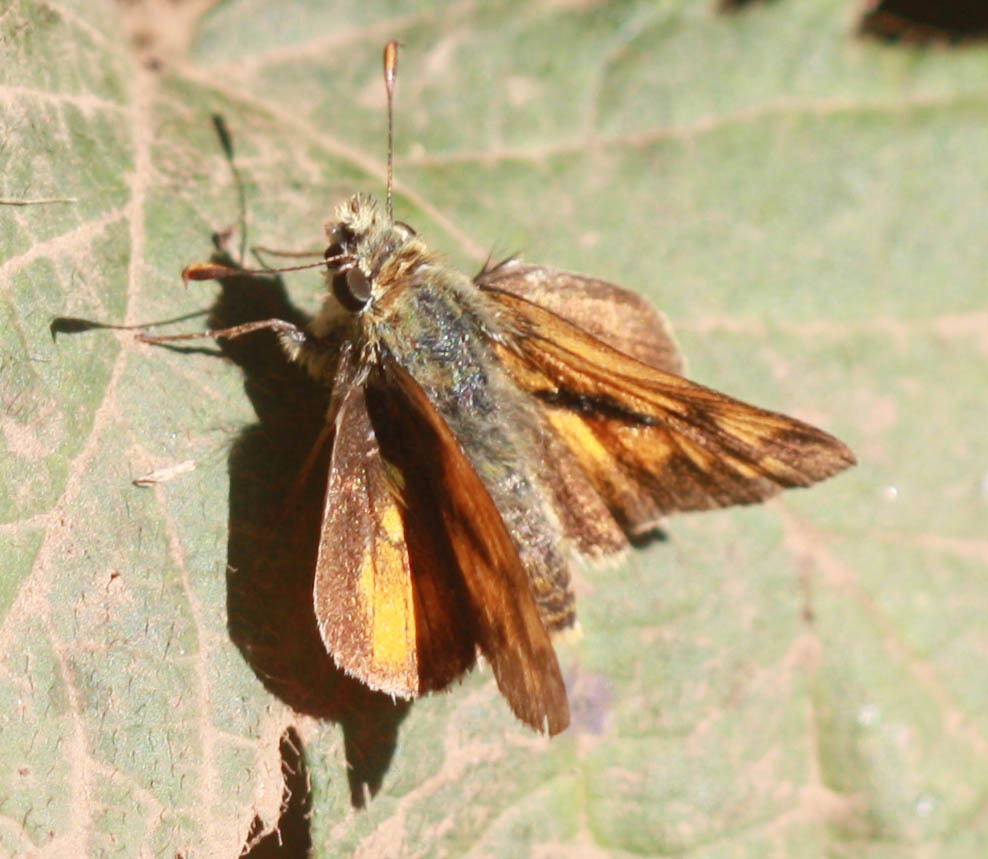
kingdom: Animalia
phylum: Arthropoda
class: Insecta
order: Lepidoptera
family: Hesperiidae
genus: Ochlodes
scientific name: Ochlodes sylvanoides
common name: Woodland skipper
